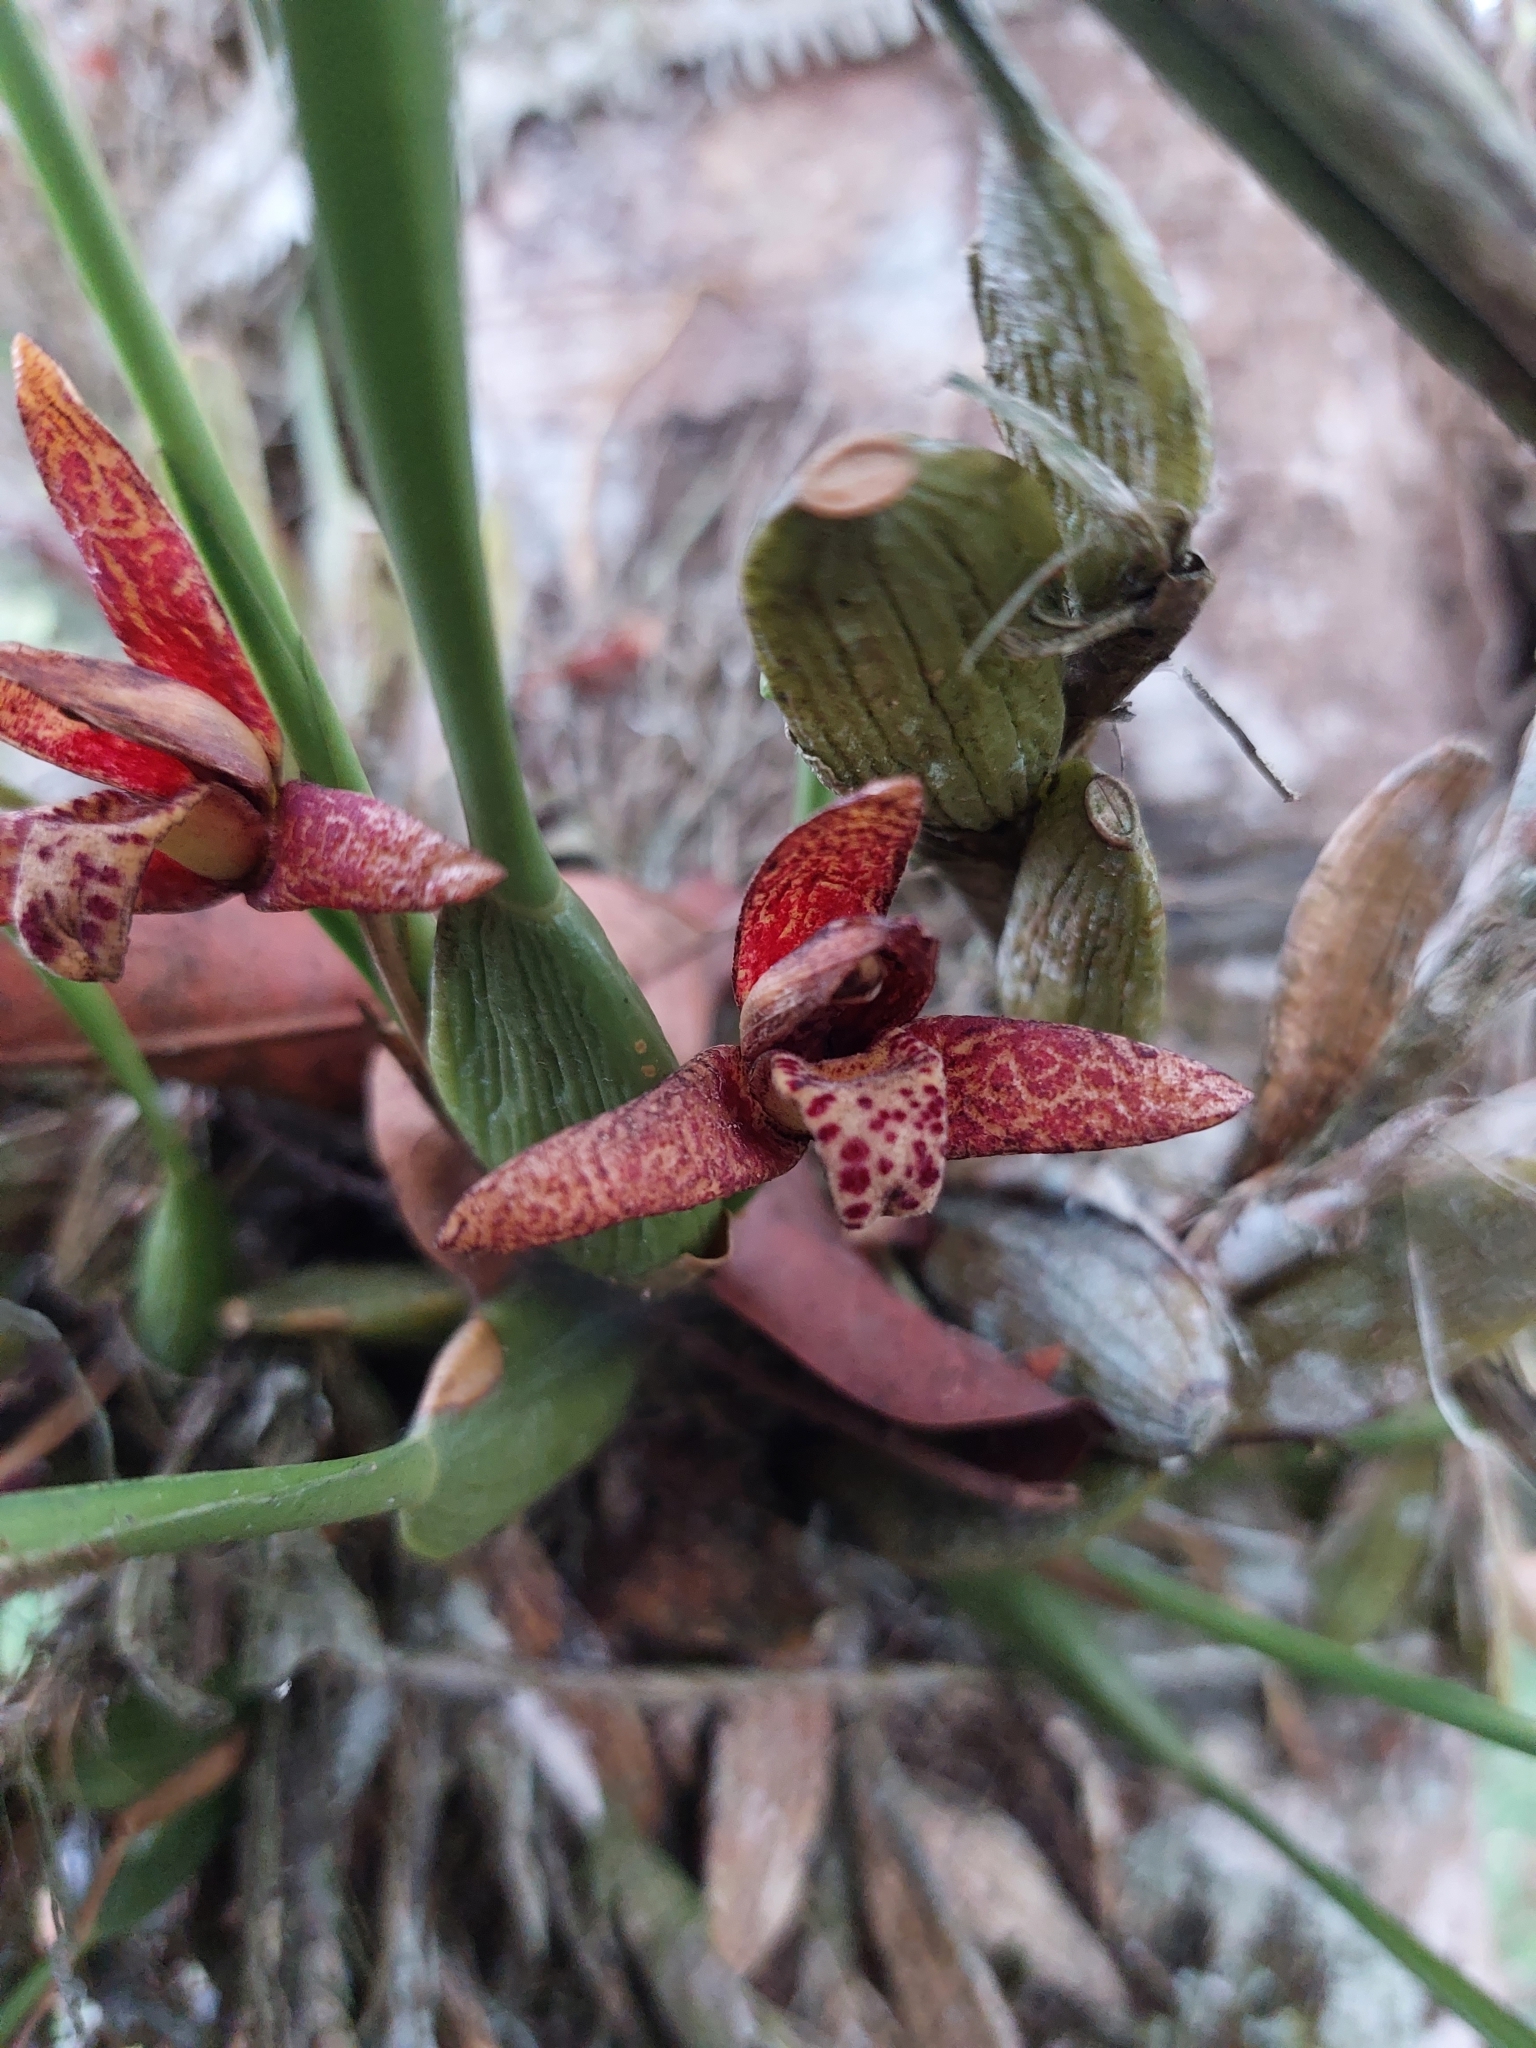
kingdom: Plantae
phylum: Tracheophyta
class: Liliopsida
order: Asparagales
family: Orchidaceae
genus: Maxillaria
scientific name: Maxillaria tenuifolia
